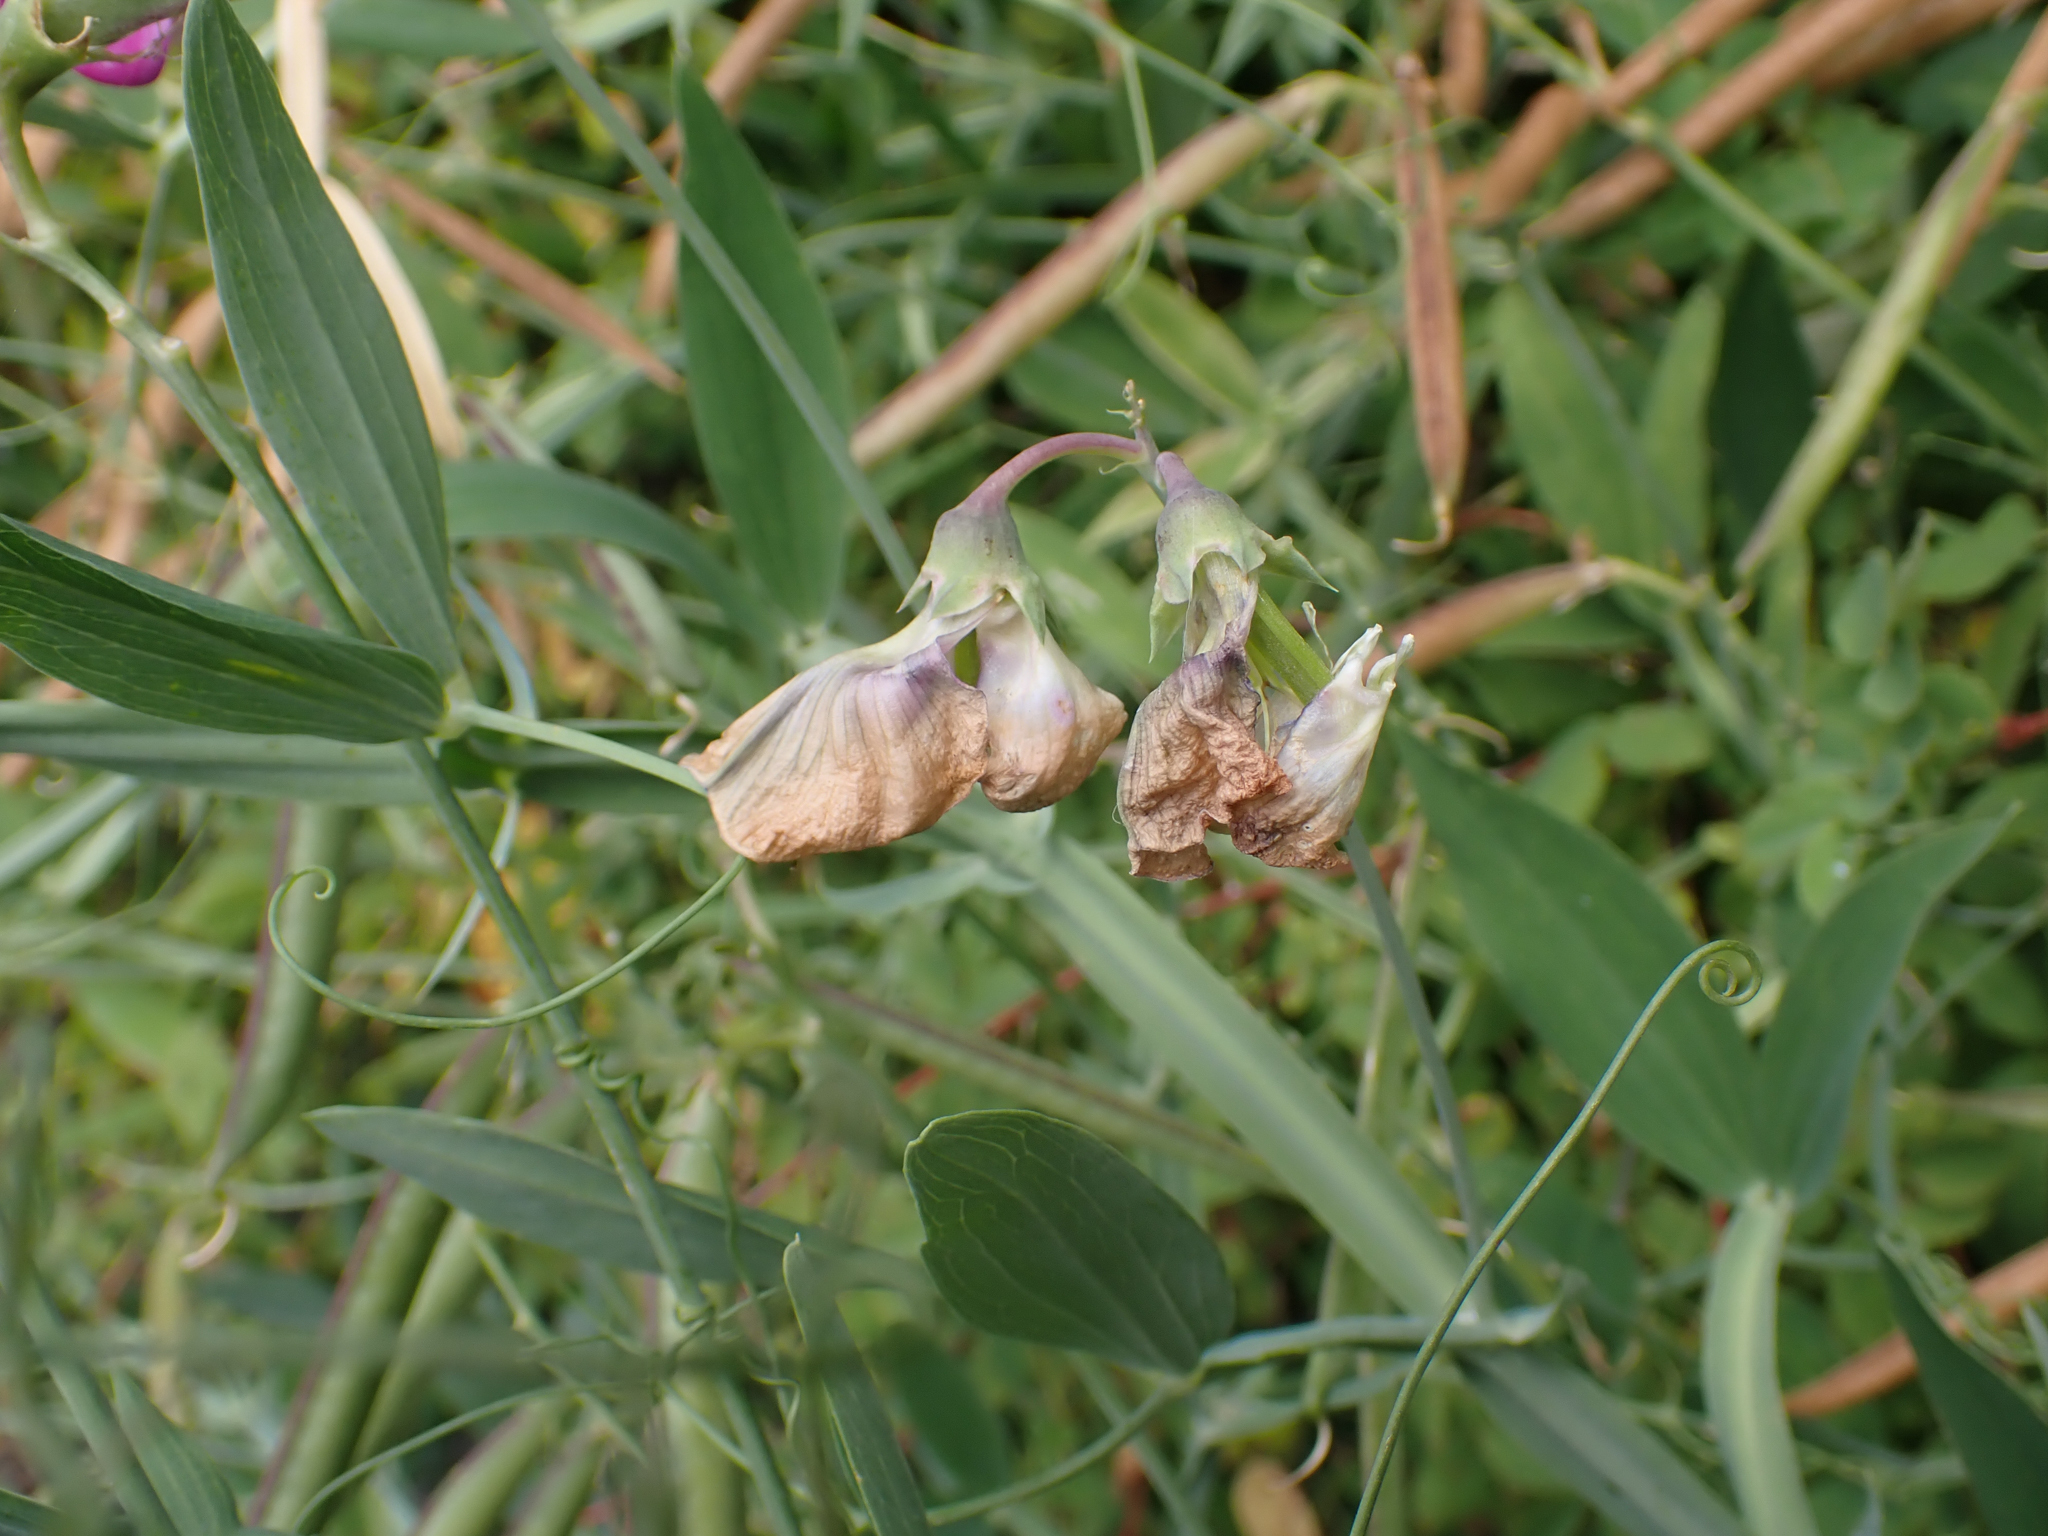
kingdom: Plantae
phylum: Tracheophyta
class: Magnoliopsida
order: Fabales
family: Fabaceae
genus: Lathyrus
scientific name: Lathyrus latifolius
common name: Perennial pea
